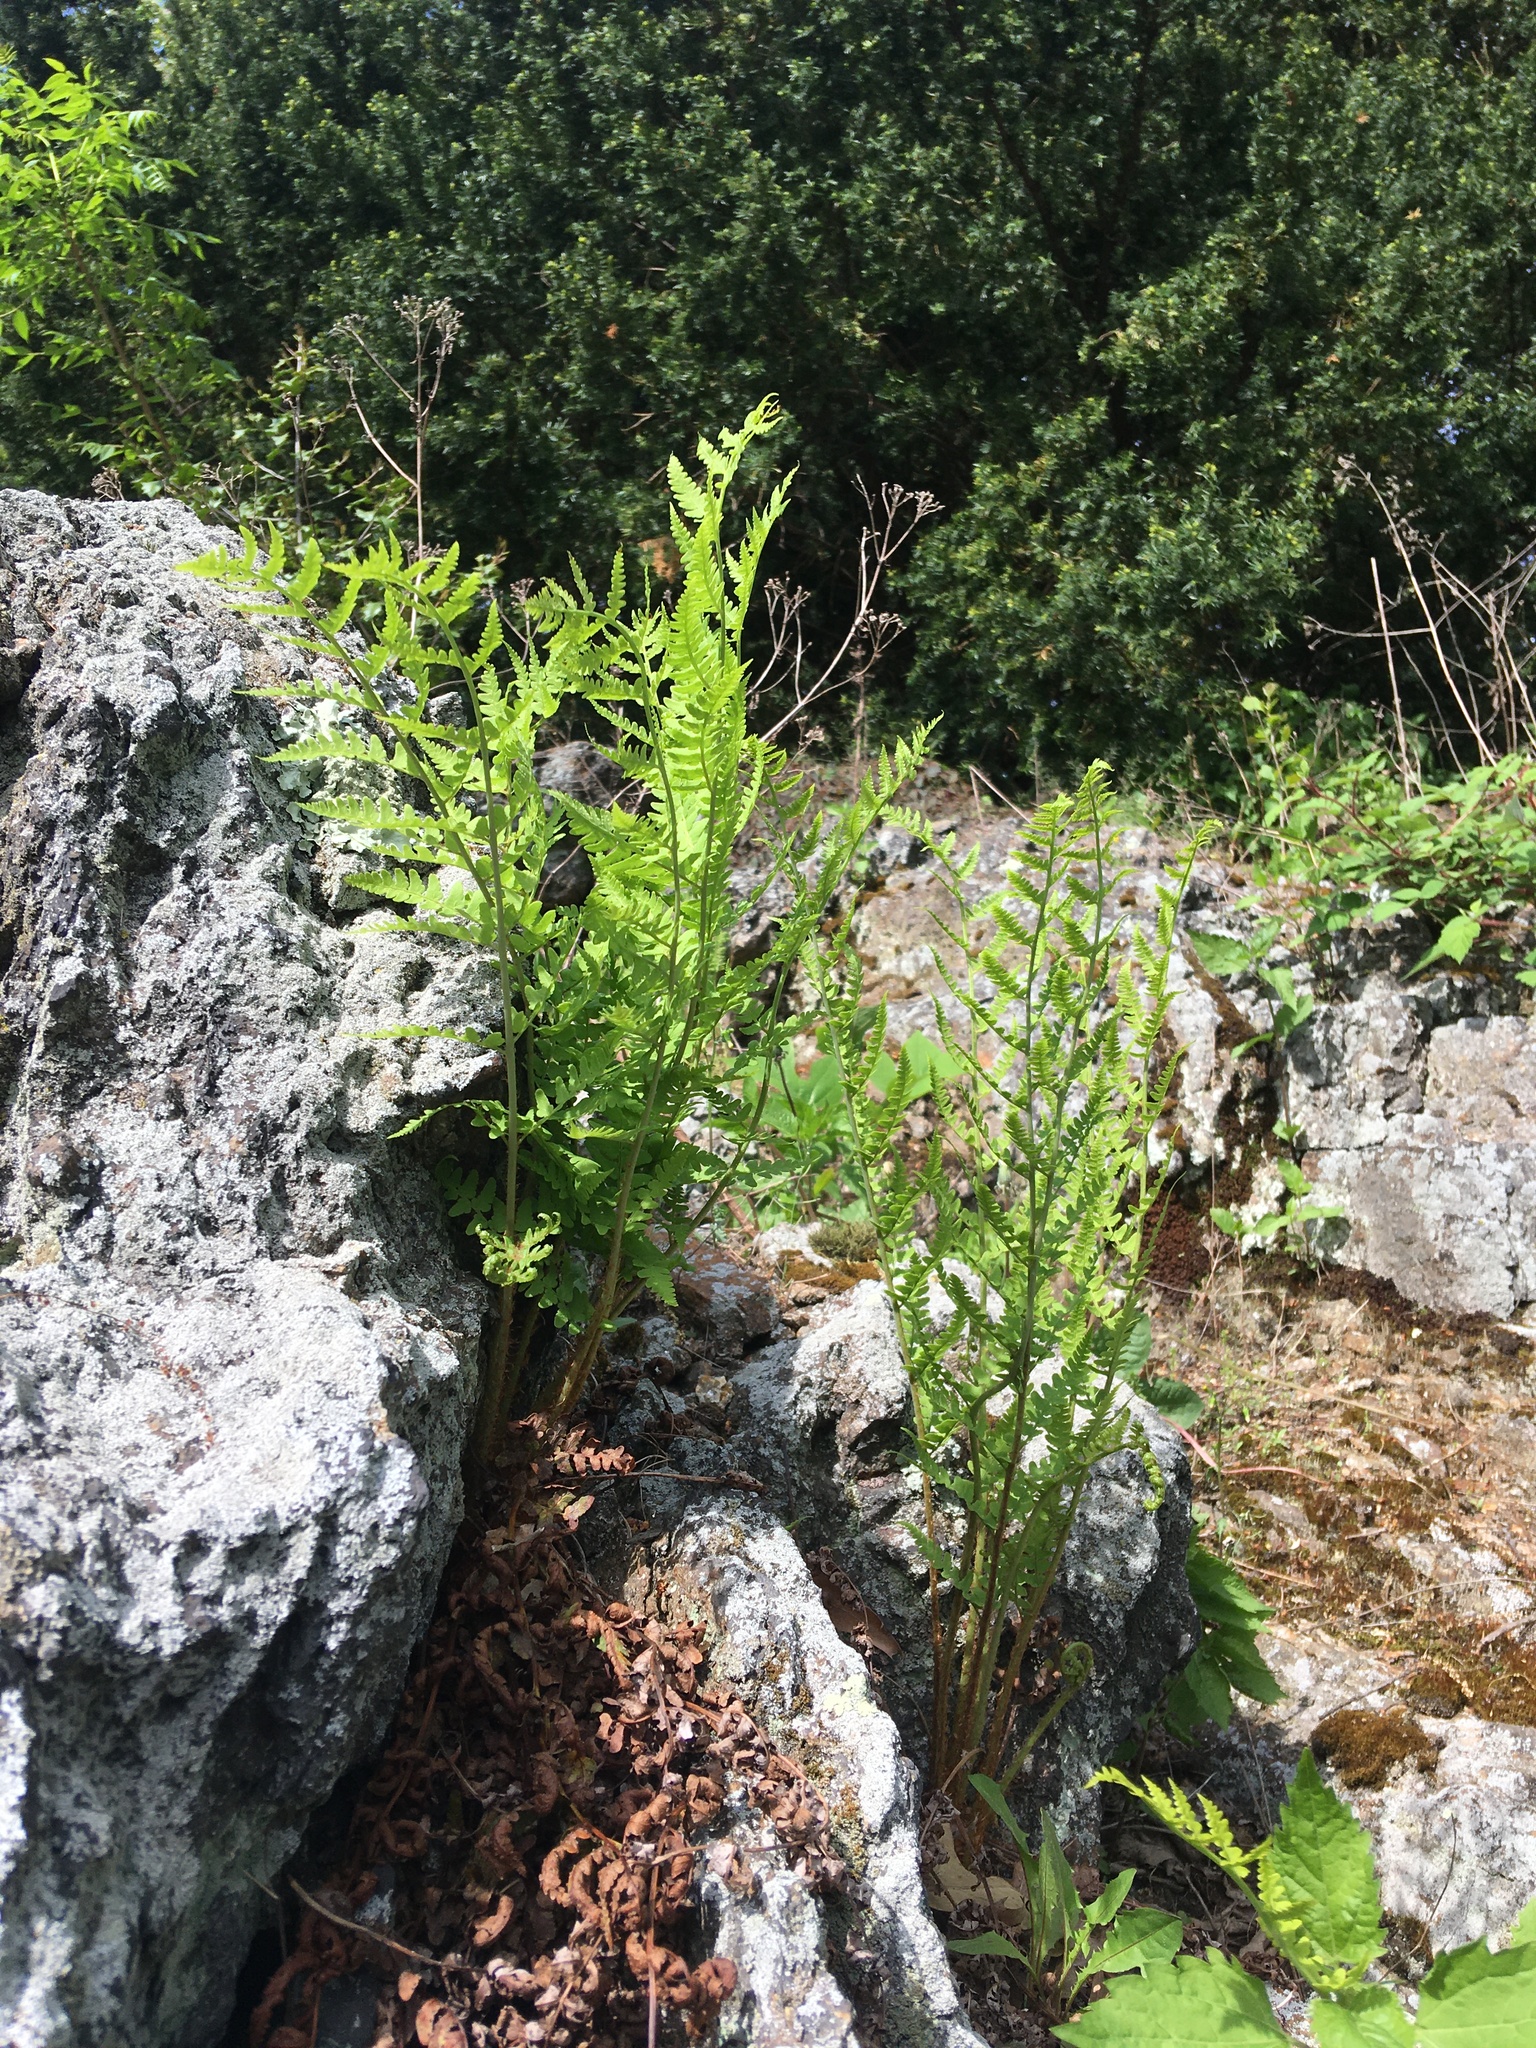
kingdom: Plantae
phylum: Tracheophyta
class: Polypodiopsida
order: Polypodiales
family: Dennstaedtiaceae
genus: Sitobolium
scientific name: Sitobolium punctilobum
